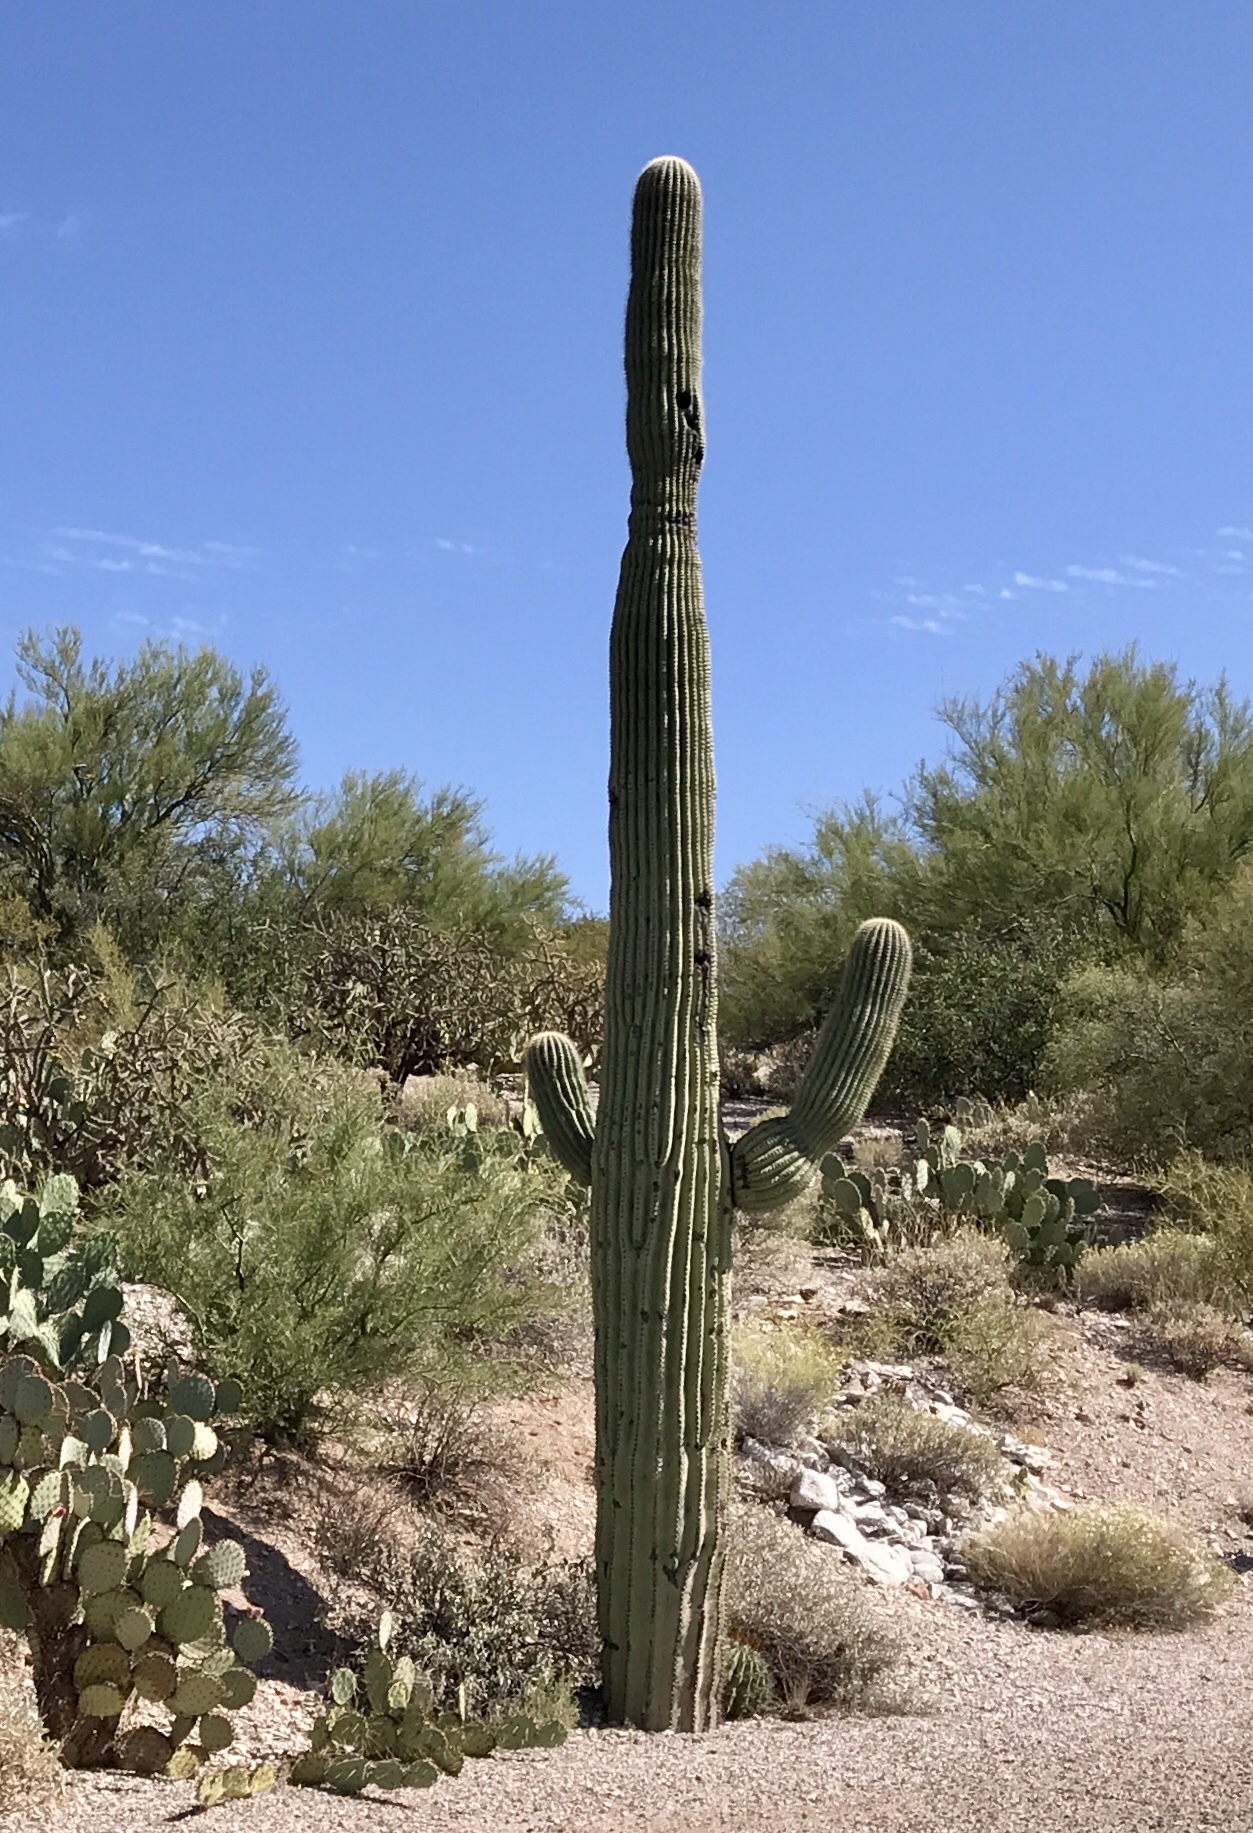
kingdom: Plantae
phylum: Tracheophyta
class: Magnoliopsida
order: Caryophyllales
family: Cactaceae
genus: Carnegiea
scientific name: Carnegiea gigantea
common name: Saguaro
